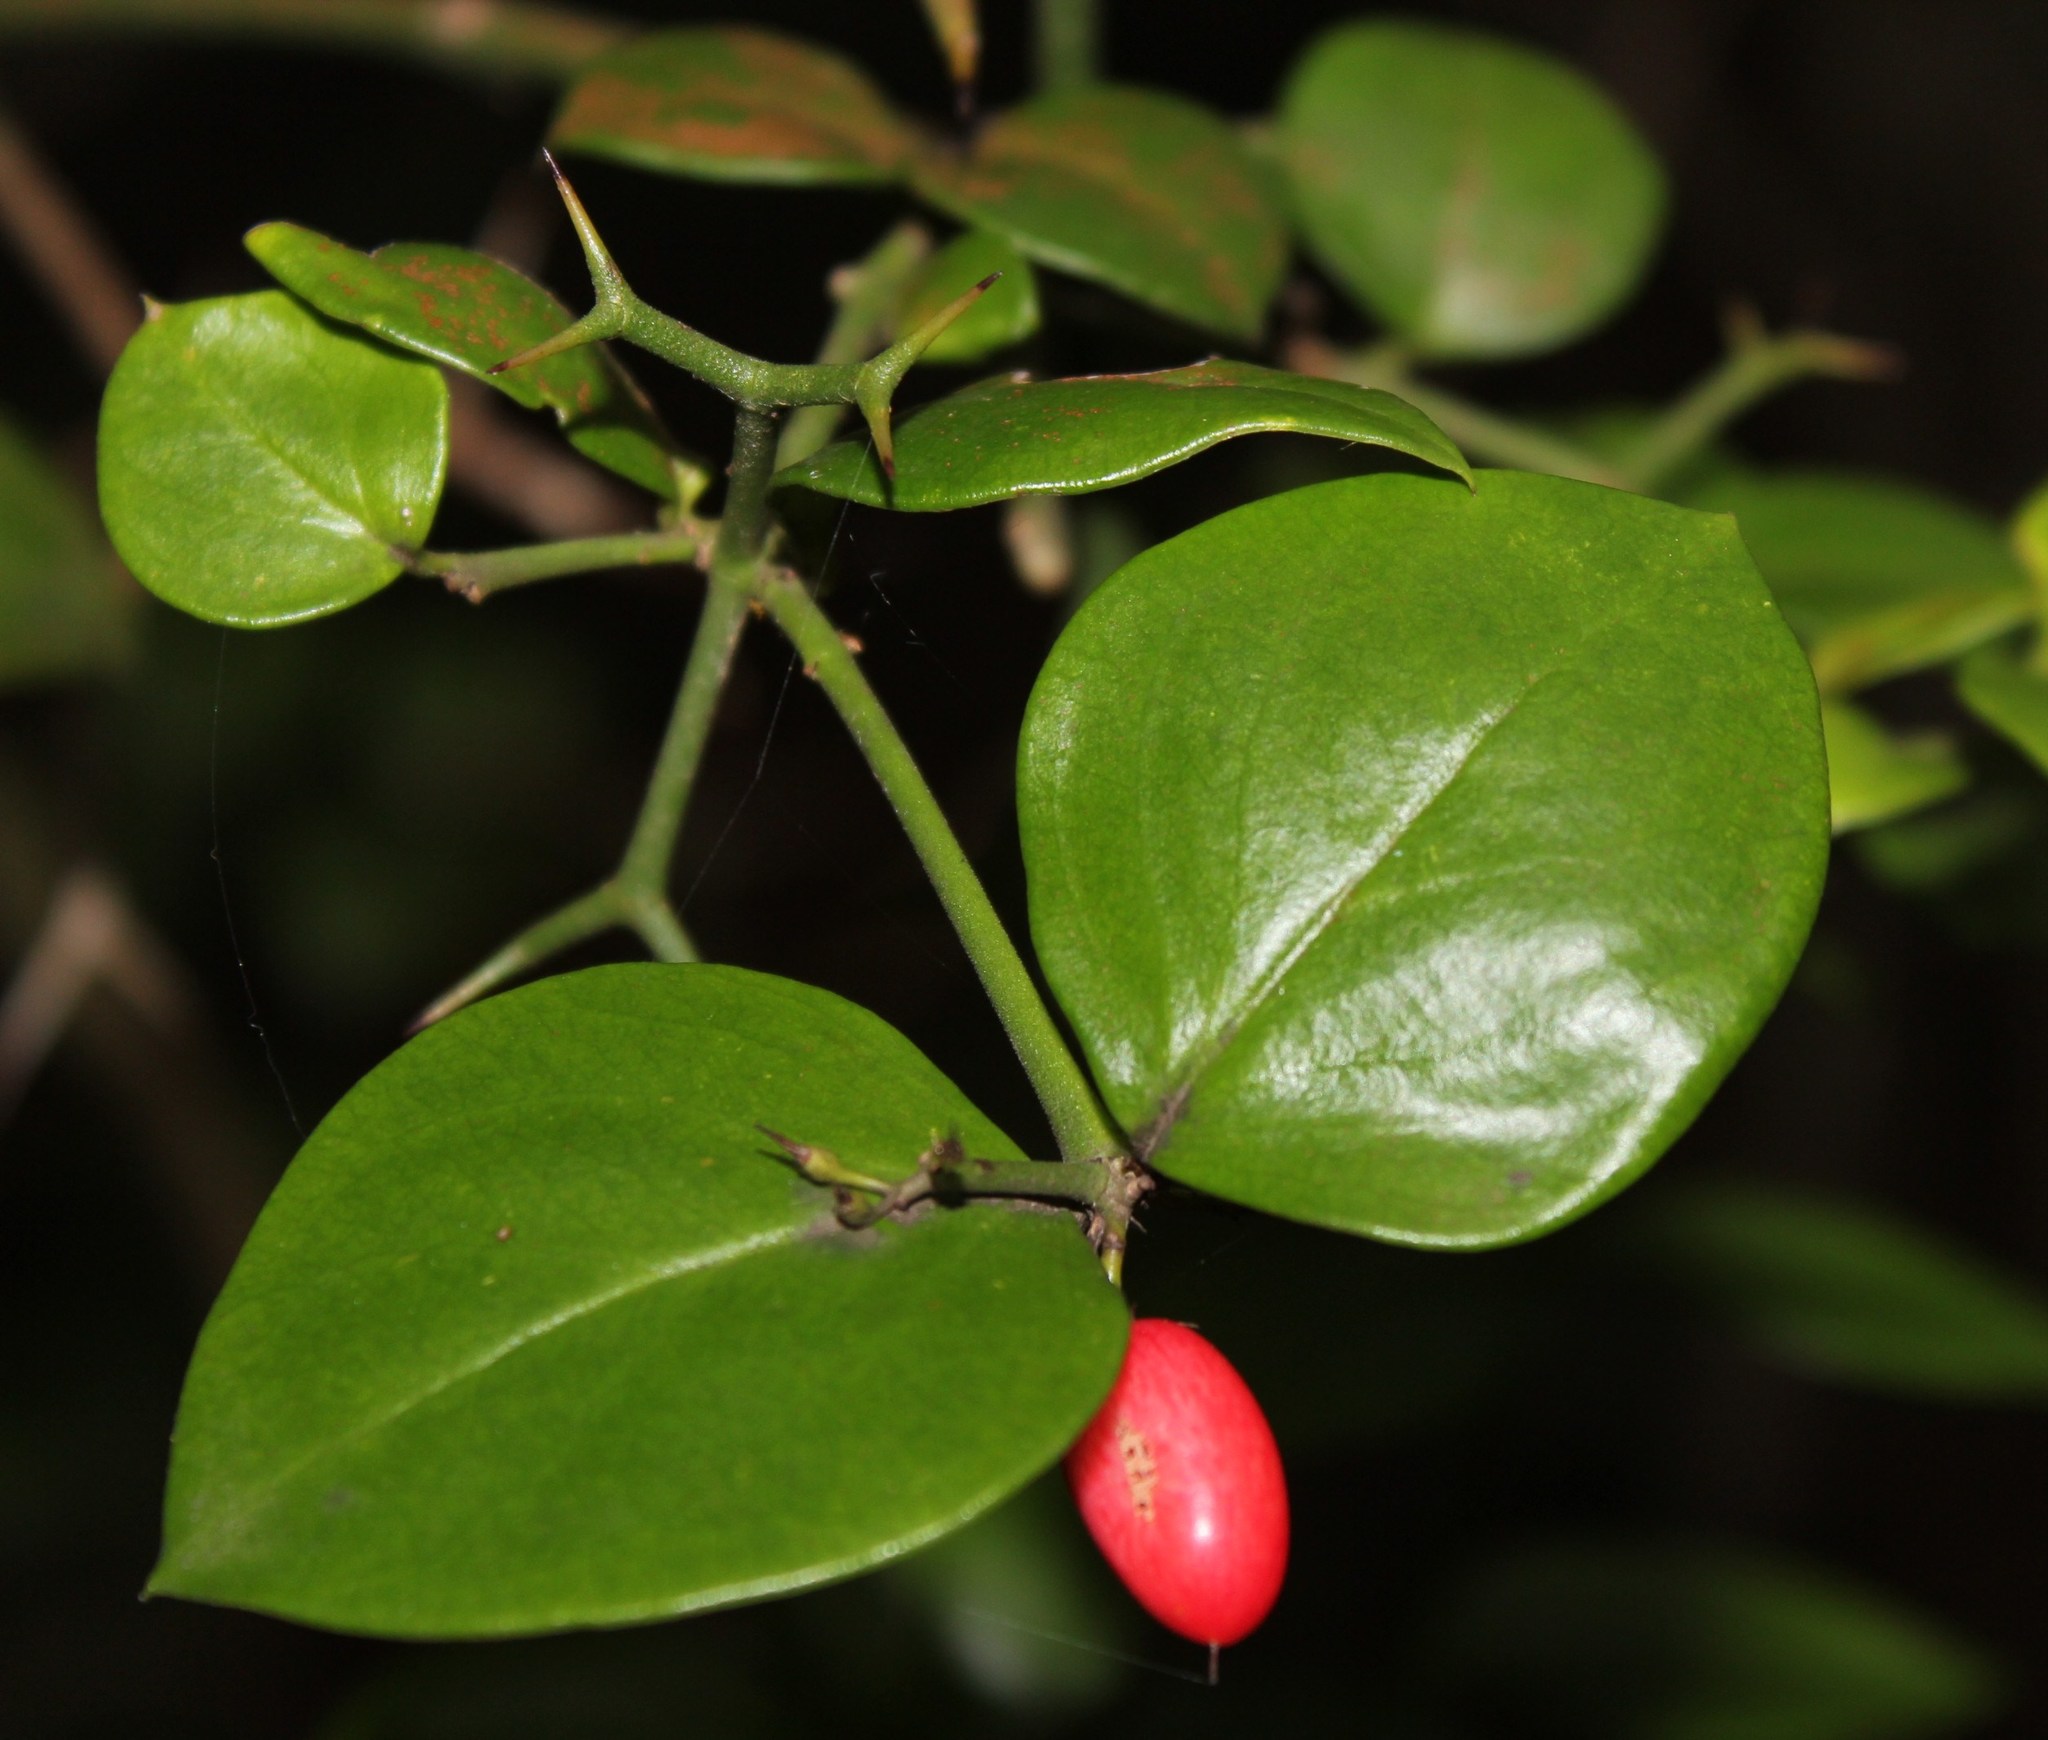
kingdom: Plantae
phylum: Tracheophyta
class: Magnoliopsida
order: Gentianales
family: Apocynaceae
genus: Carissa
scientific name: Carissa bispinosa
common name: Forest num-num
